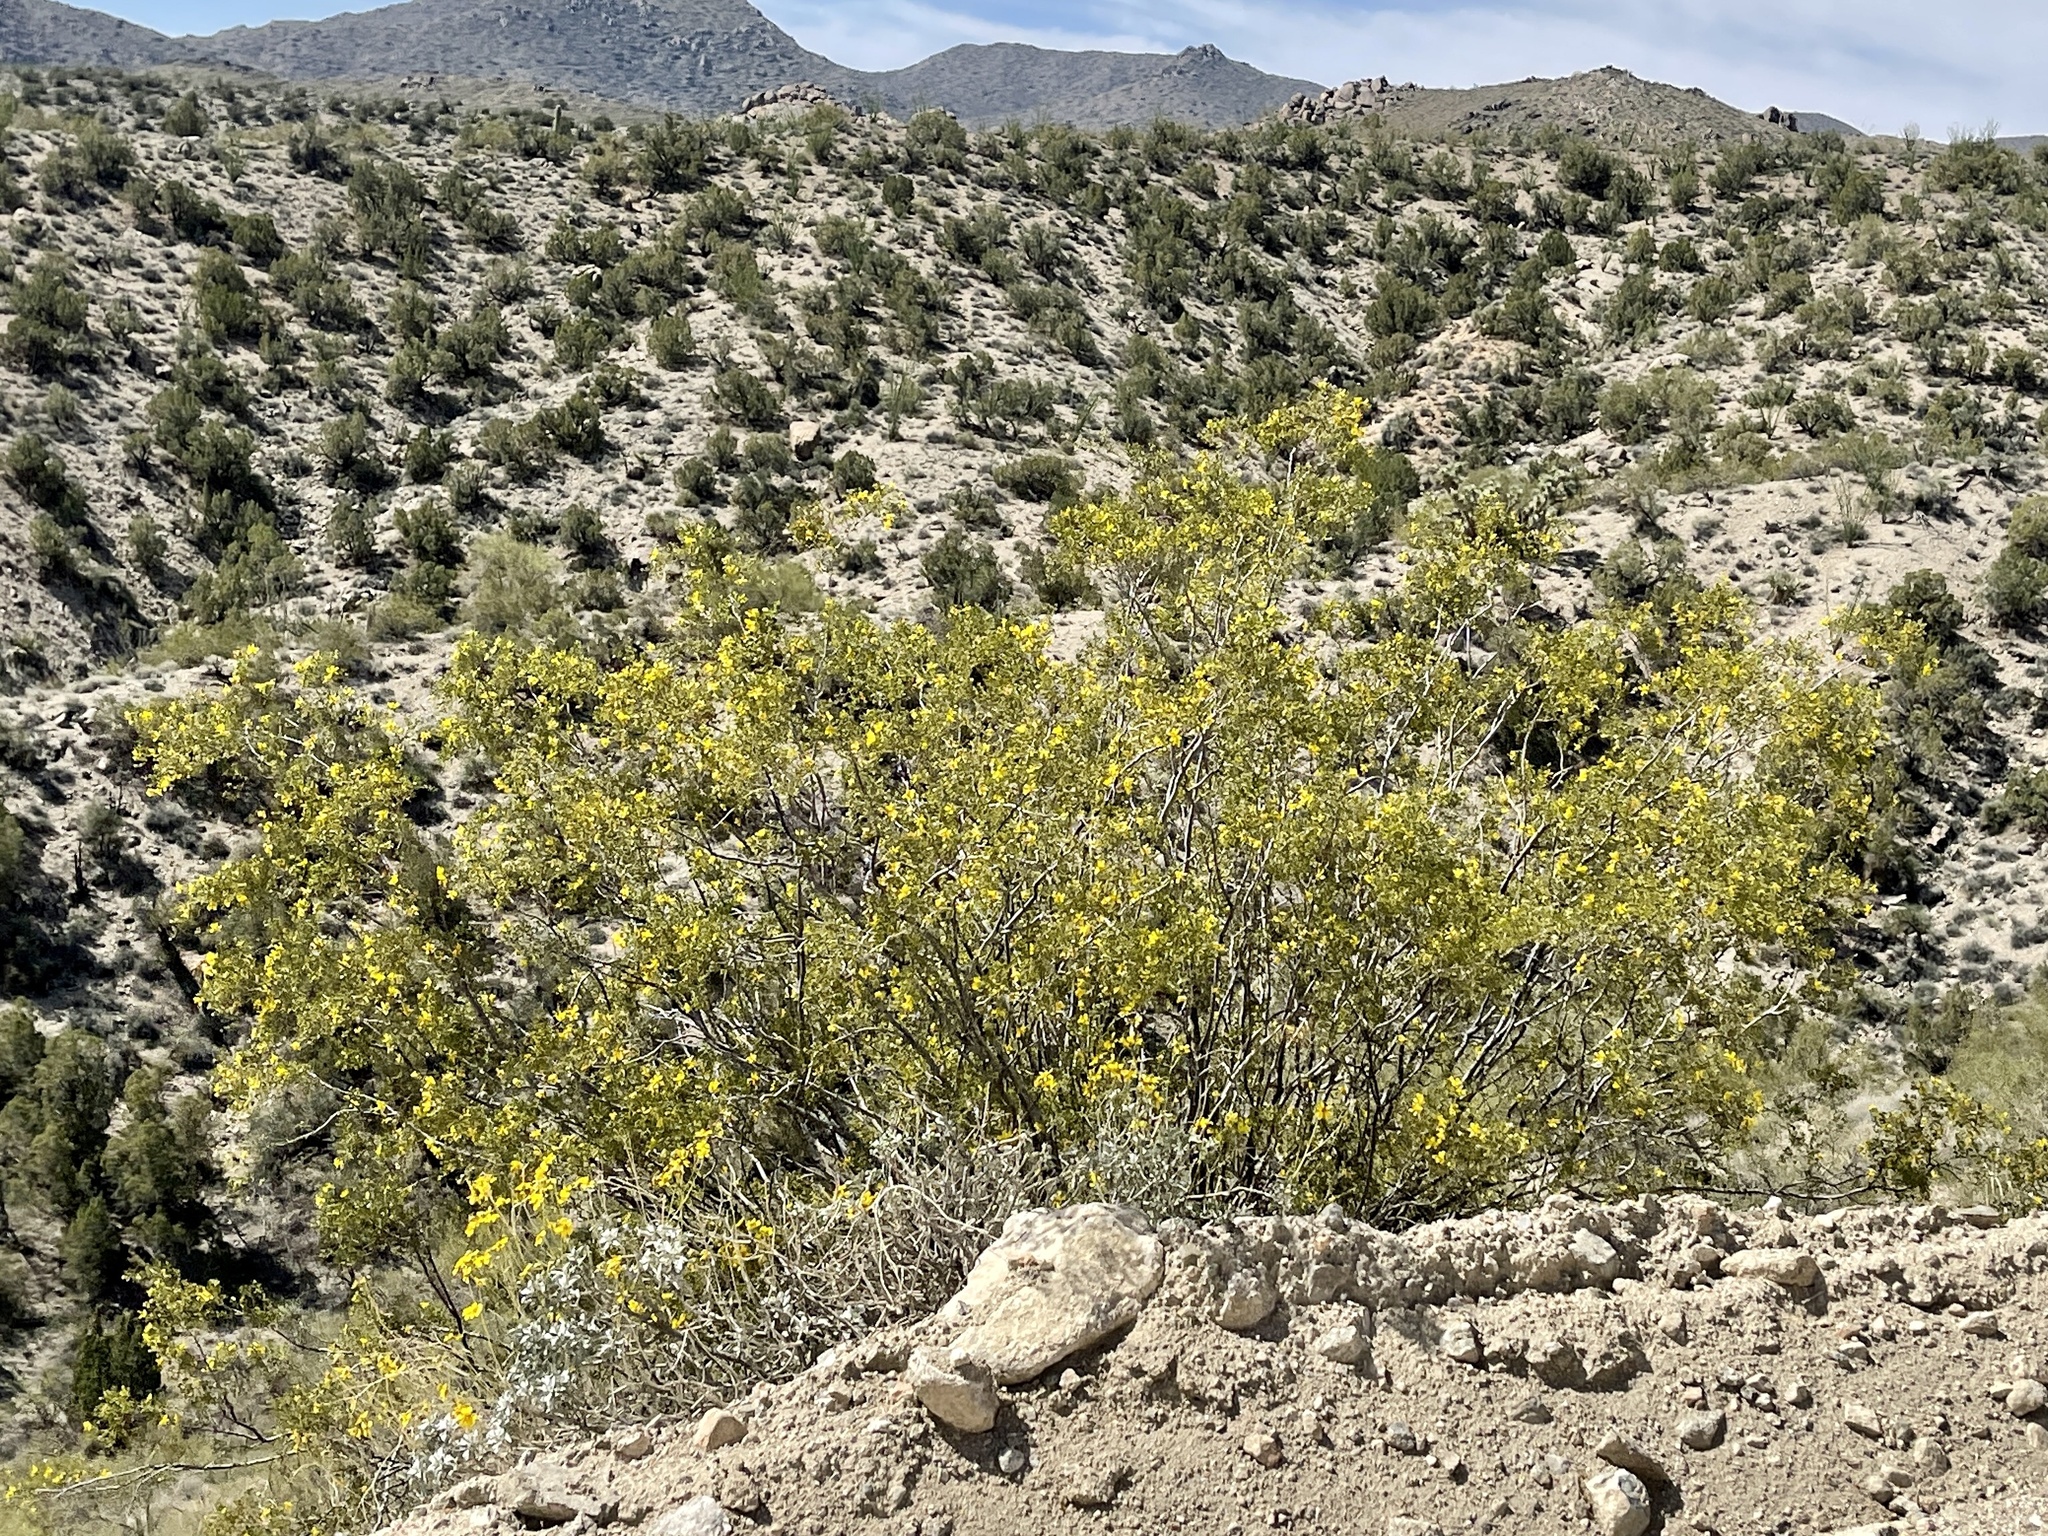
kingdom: Plantae
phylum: Tracheophyta
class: Magnoliopsida
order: Zygophyllales
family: Zygophyllaceae
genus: Larrea
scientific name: Larrea tridentata
